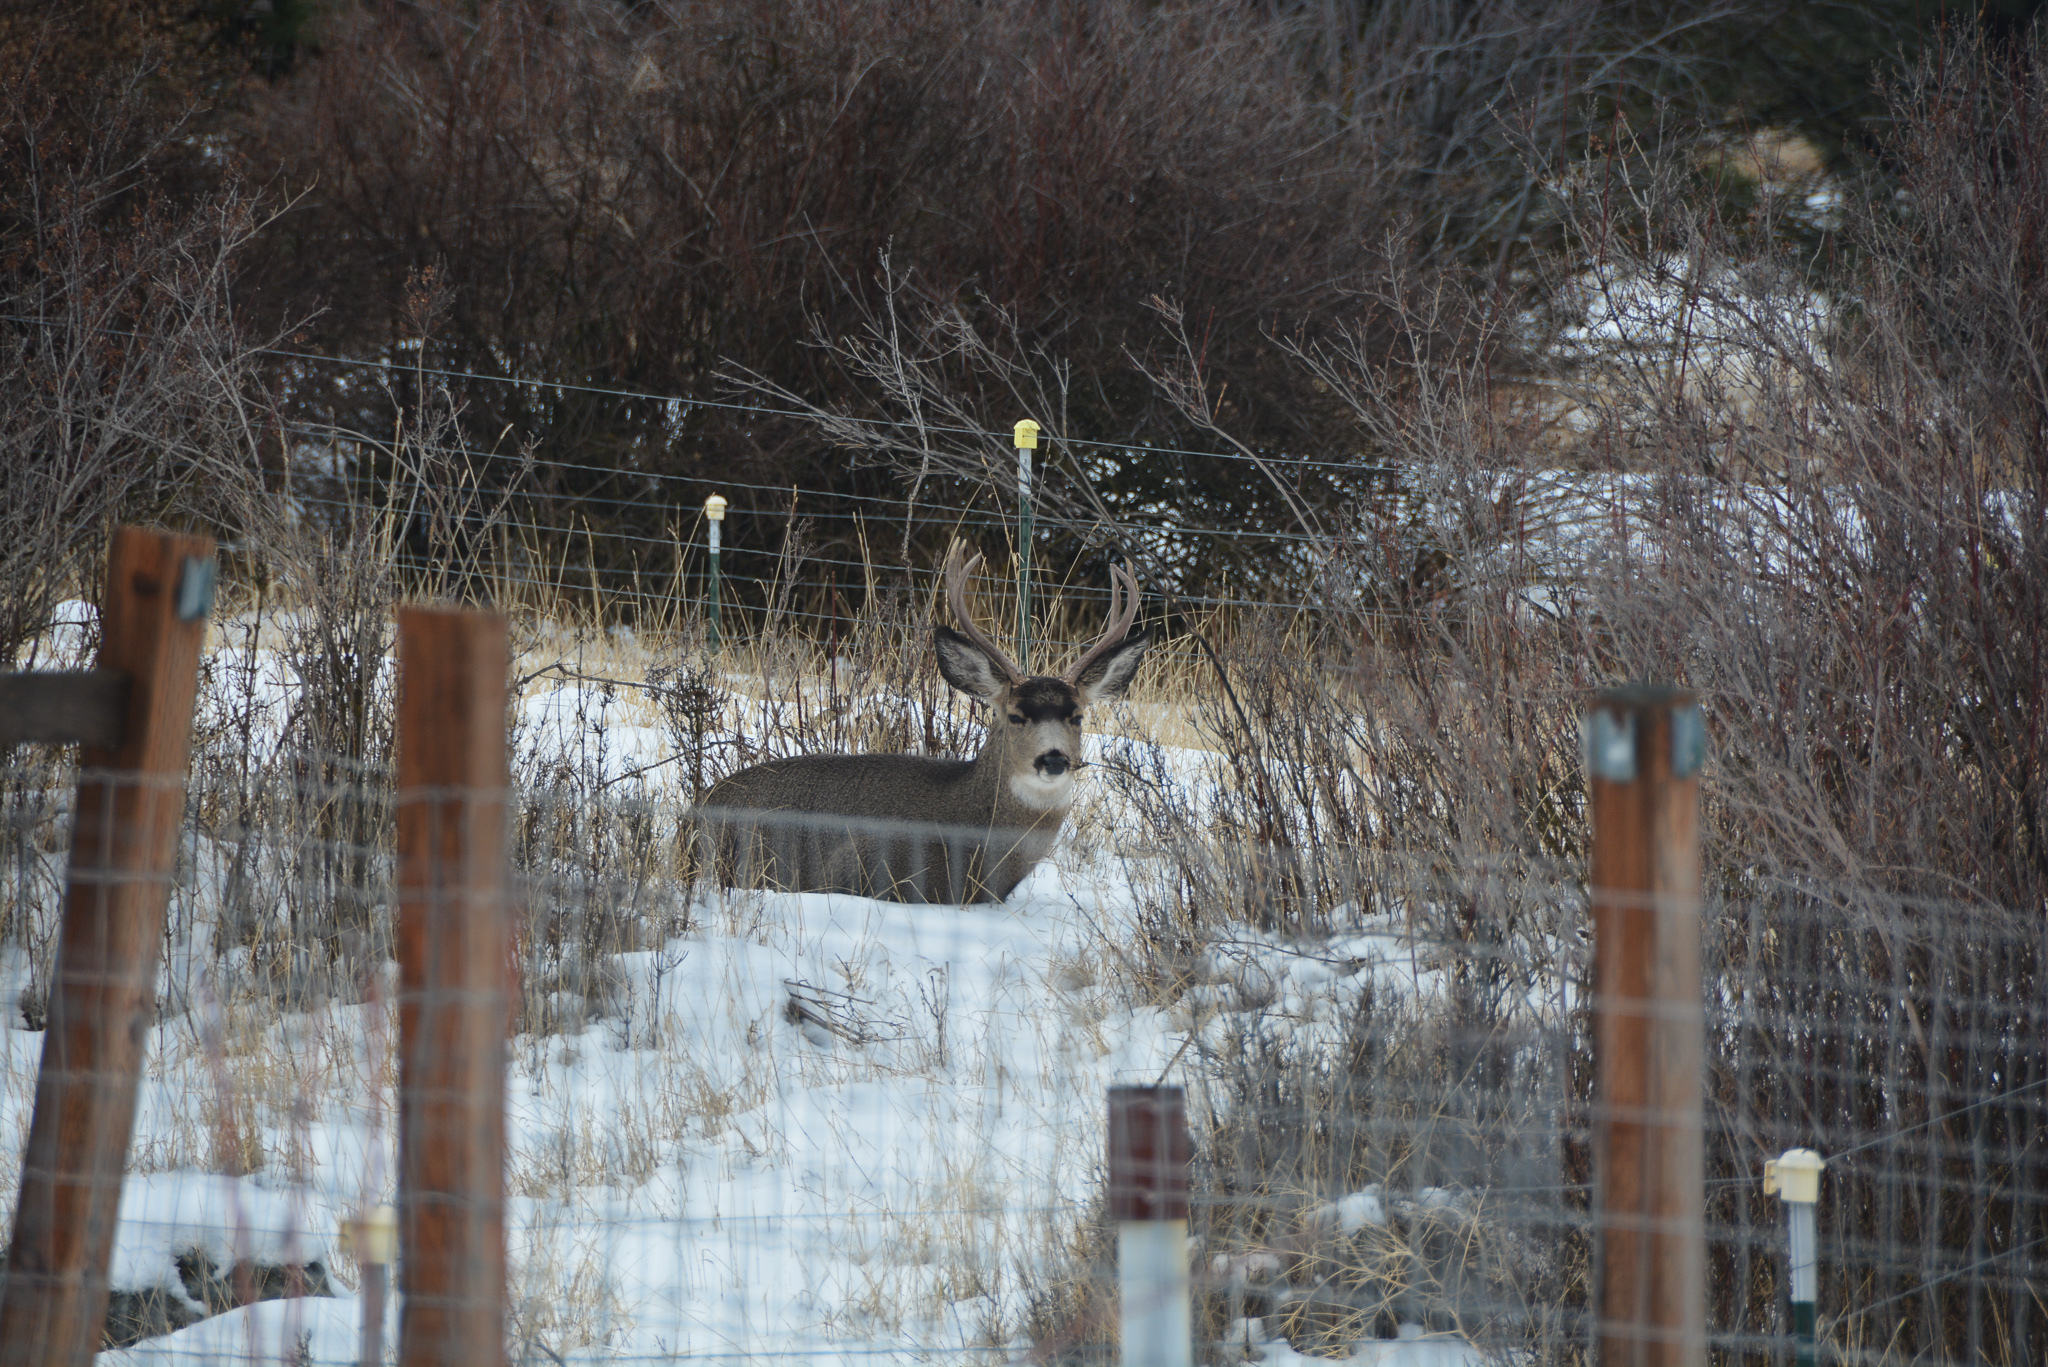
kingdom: Animalia
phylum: Chordata
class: Mammalia
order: Artiodactyla
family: Cervidae
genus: Odocoileus
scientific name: Odocoileus hemionus
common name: Mule deer
